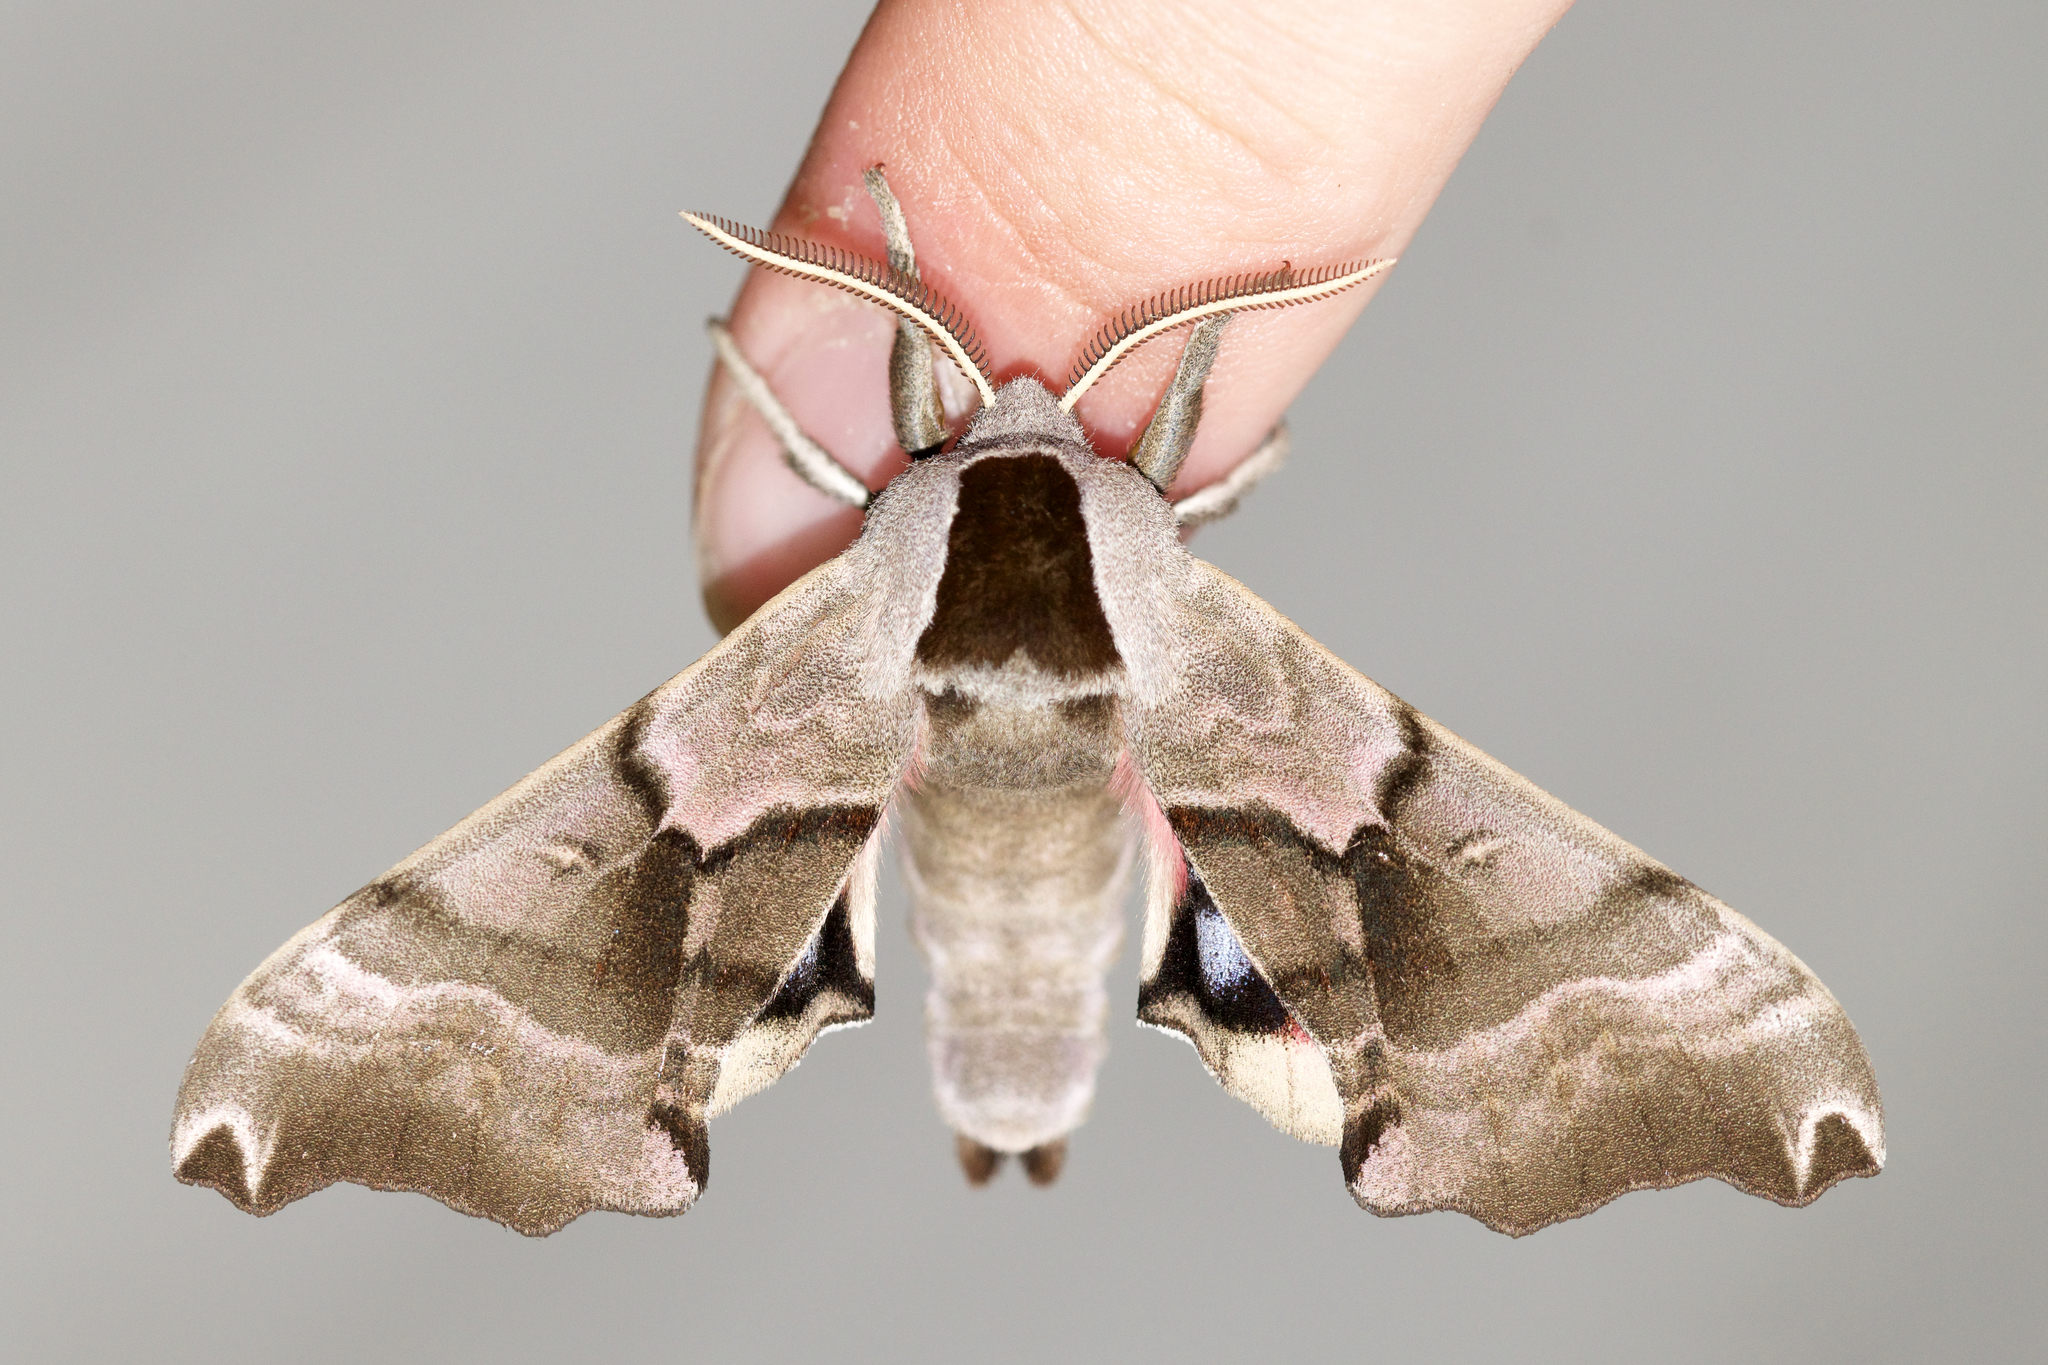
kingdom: Animalia
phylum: Arthropoda
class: Insecta
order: Lepidoptera
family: Sphingidae
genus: Smerinthus
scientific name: Smerinthus jamaicensis
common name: Twin spotted sphinx
